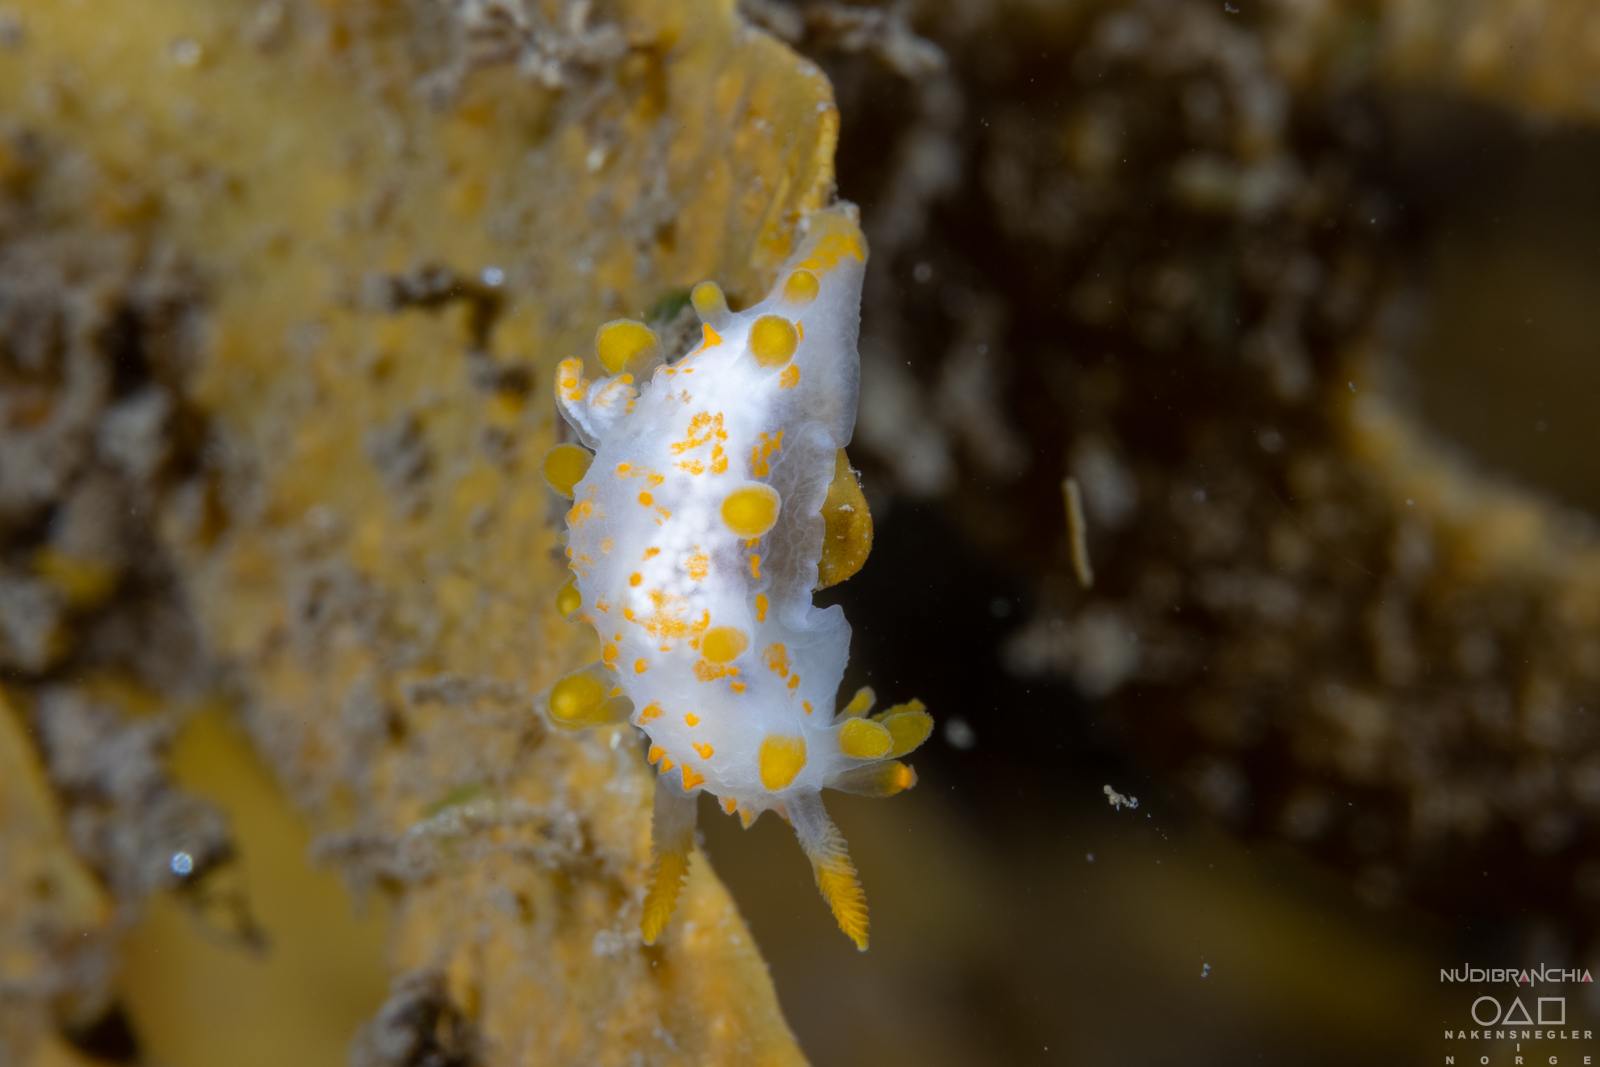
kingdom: Animalia
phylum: Mollusca
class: Gastropoda
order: Nudibranchia
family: Polyceridae
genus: Limacia
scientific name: Limacia clavigera
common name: Orange-clubbed sea slug
